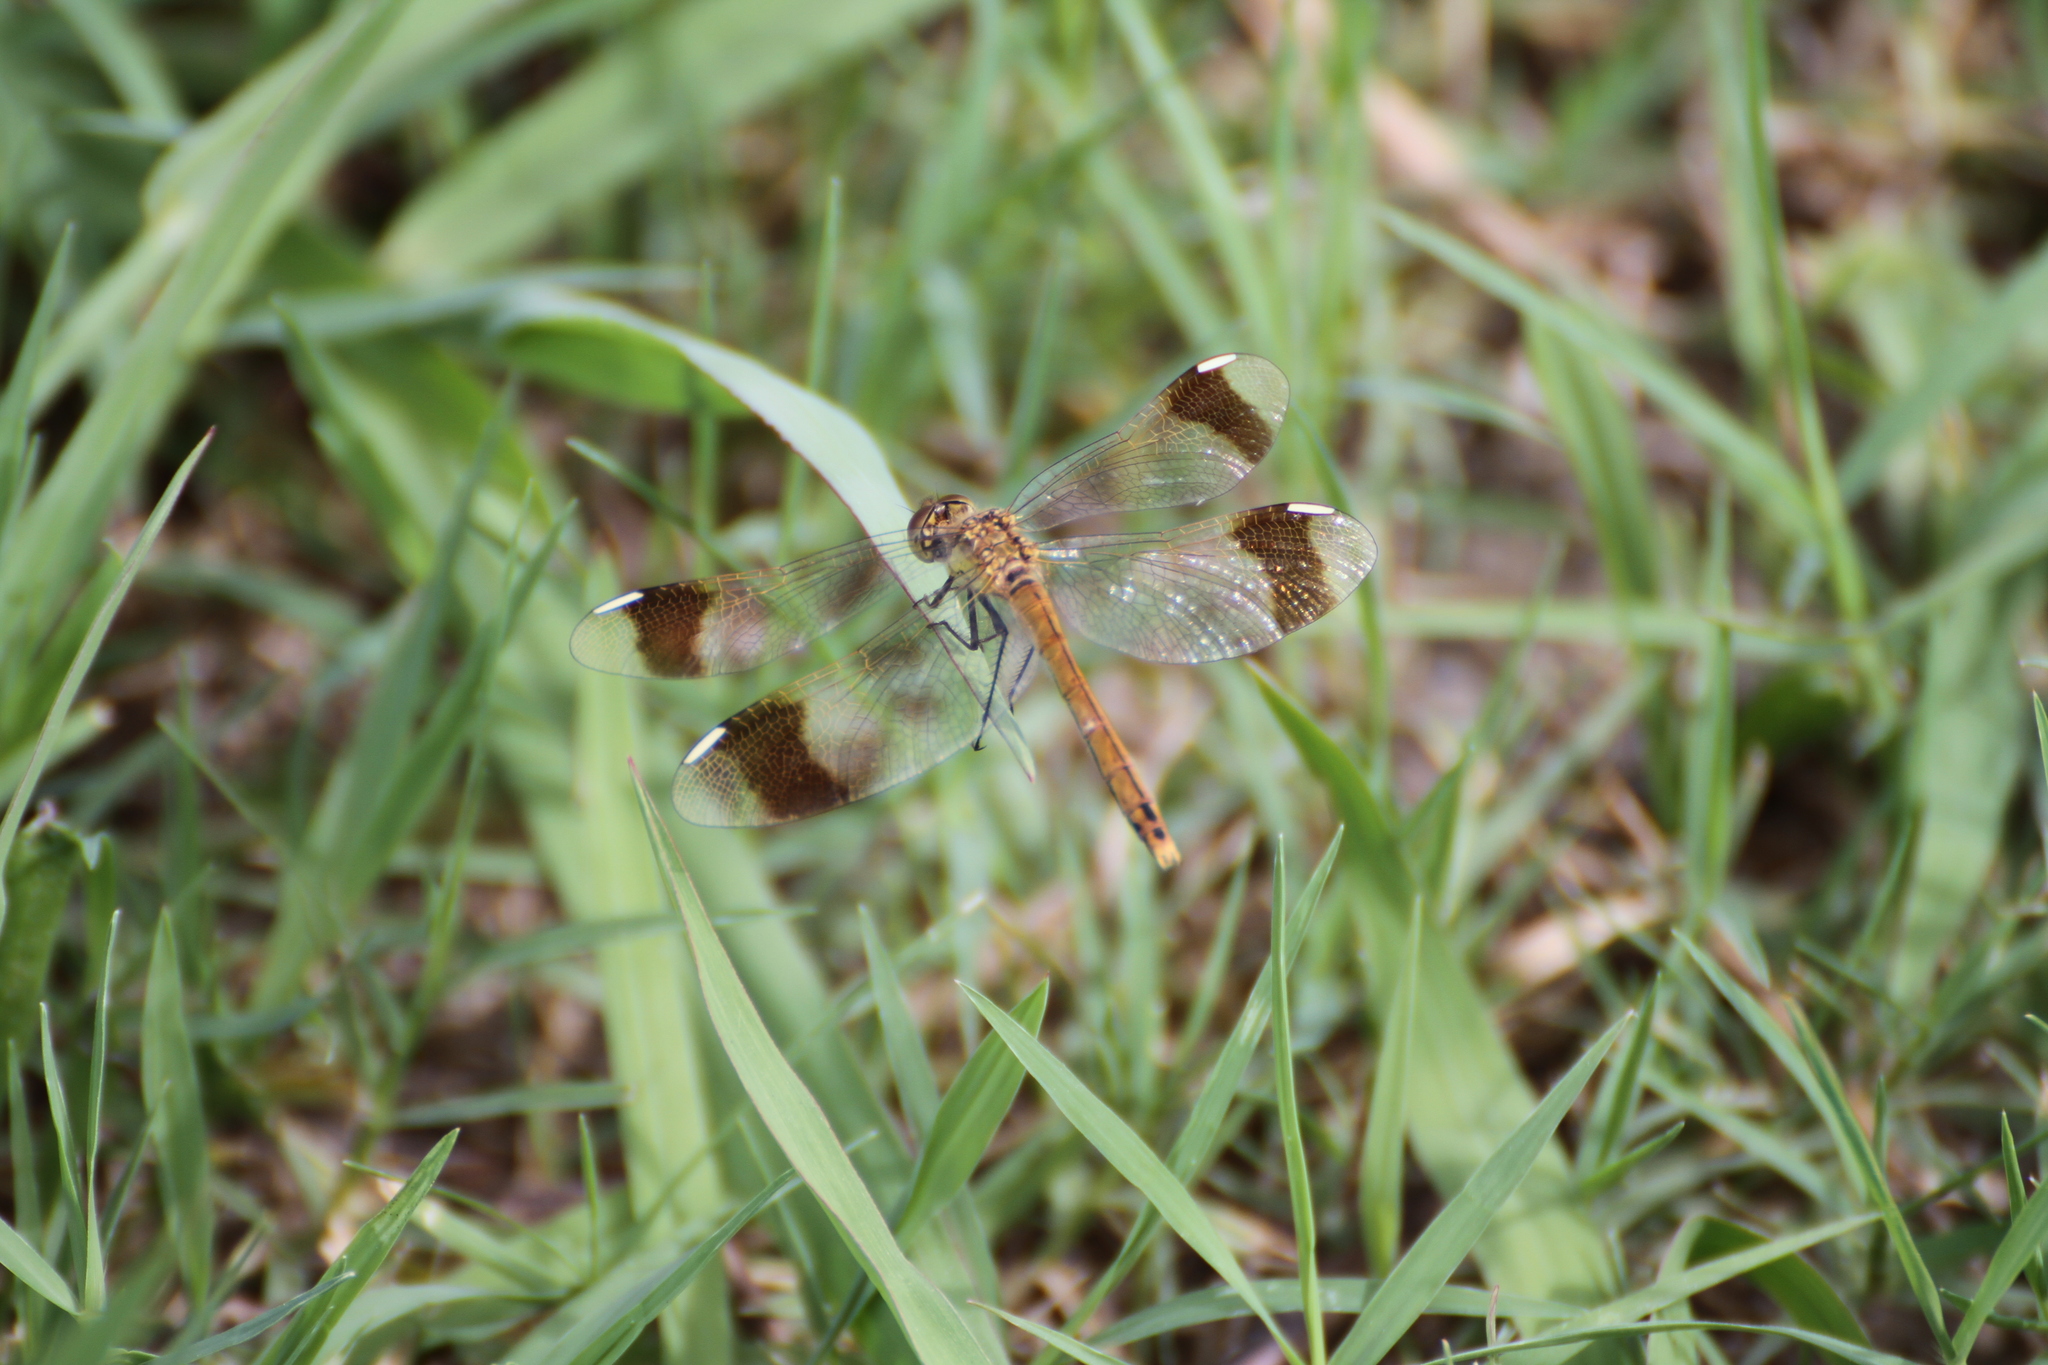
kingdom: Animalia
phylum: Arthropoda
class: Insecta
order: Odonata
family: Libellulidae
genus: Sympetrum
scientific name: Sympetrum pedemontanum
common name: Banded darter
